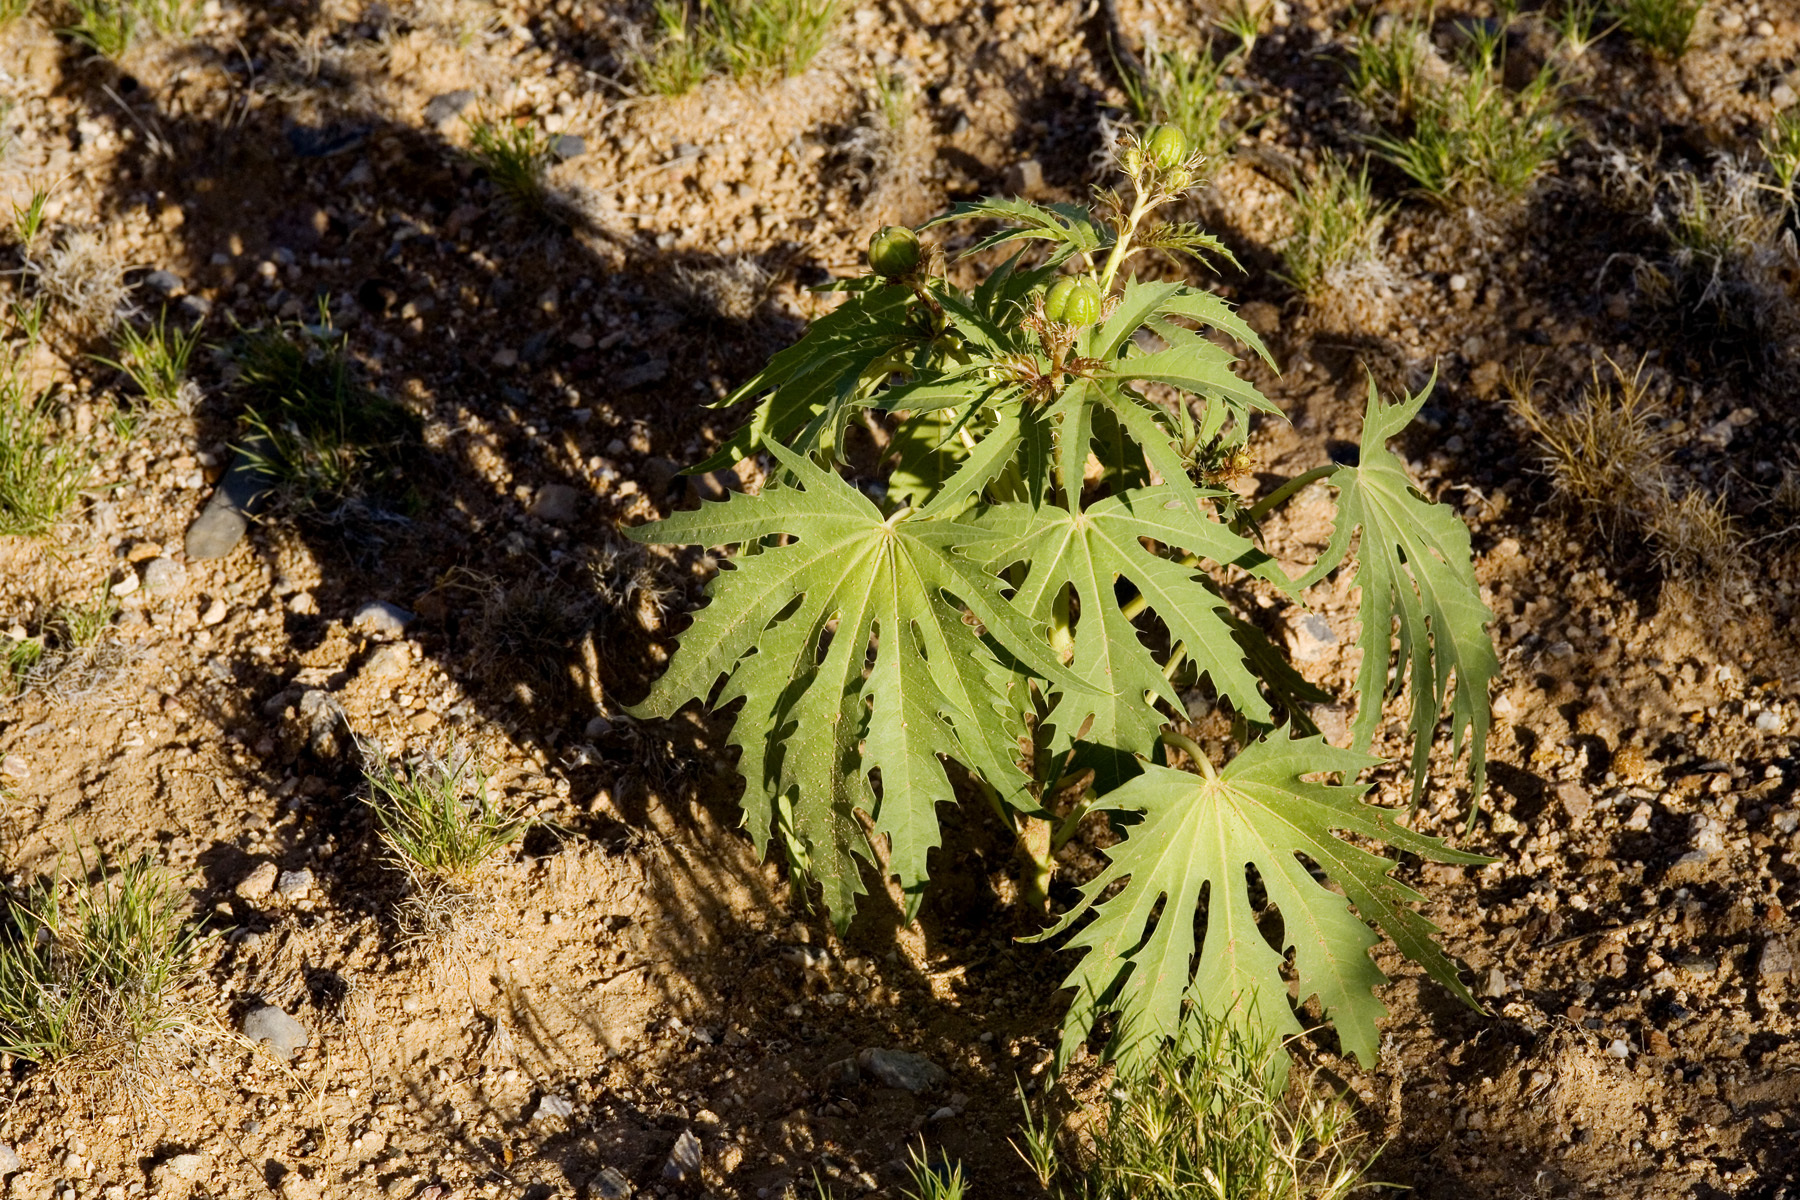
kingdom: Plantae
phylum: Tracheophyta
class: Magnoliopsida
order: Malpighiales
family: Euphorbiaceae
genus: Jatropha
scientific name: Jatropha macrorhiza
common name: Ragged nettlespurge
